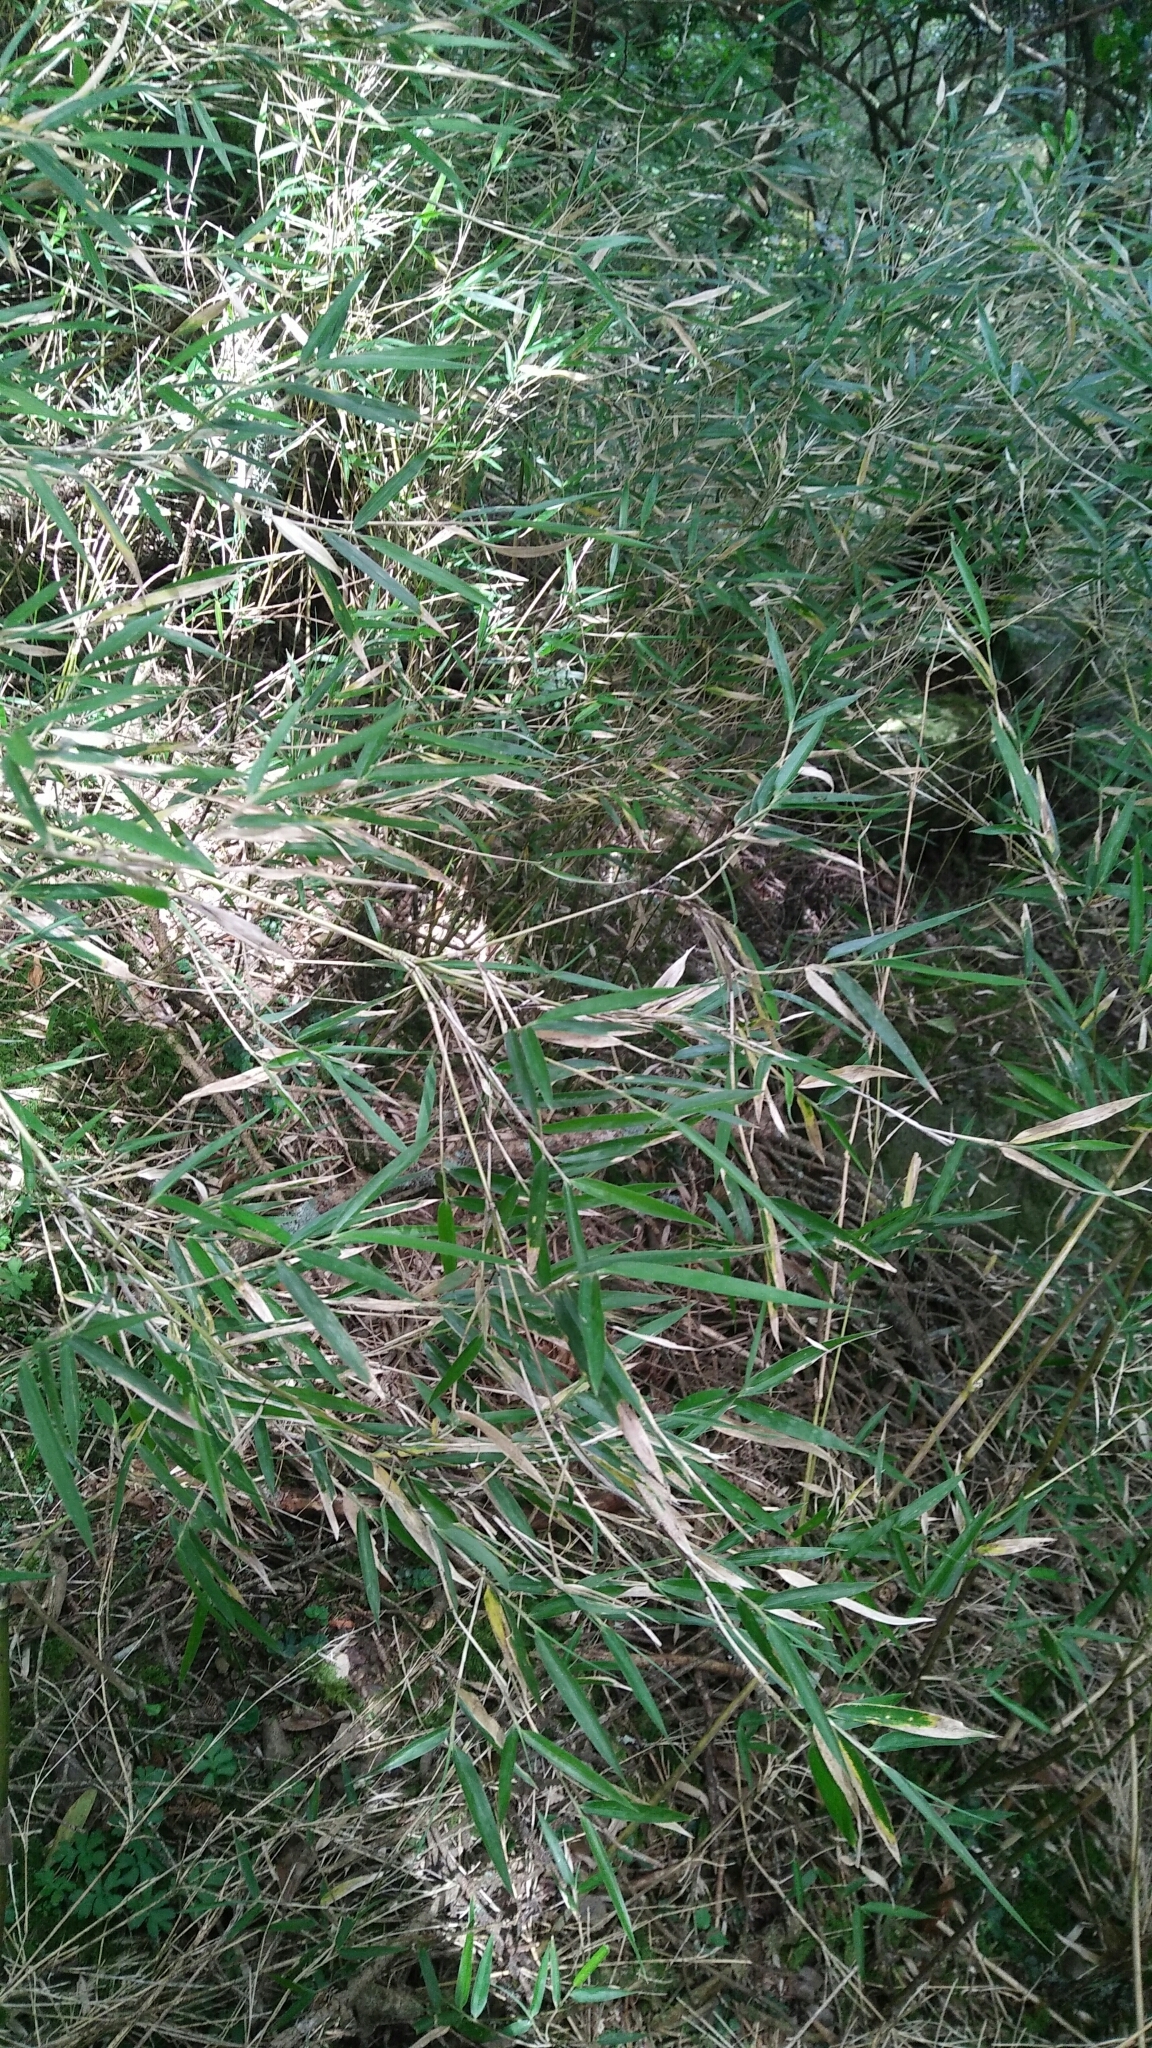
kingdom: Plantae
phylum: Tracheophyta
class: Liliopsida
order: Poales
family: Poaceae
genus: Yushania
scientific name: Yushania niitakayamensis
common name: Yushan cane
